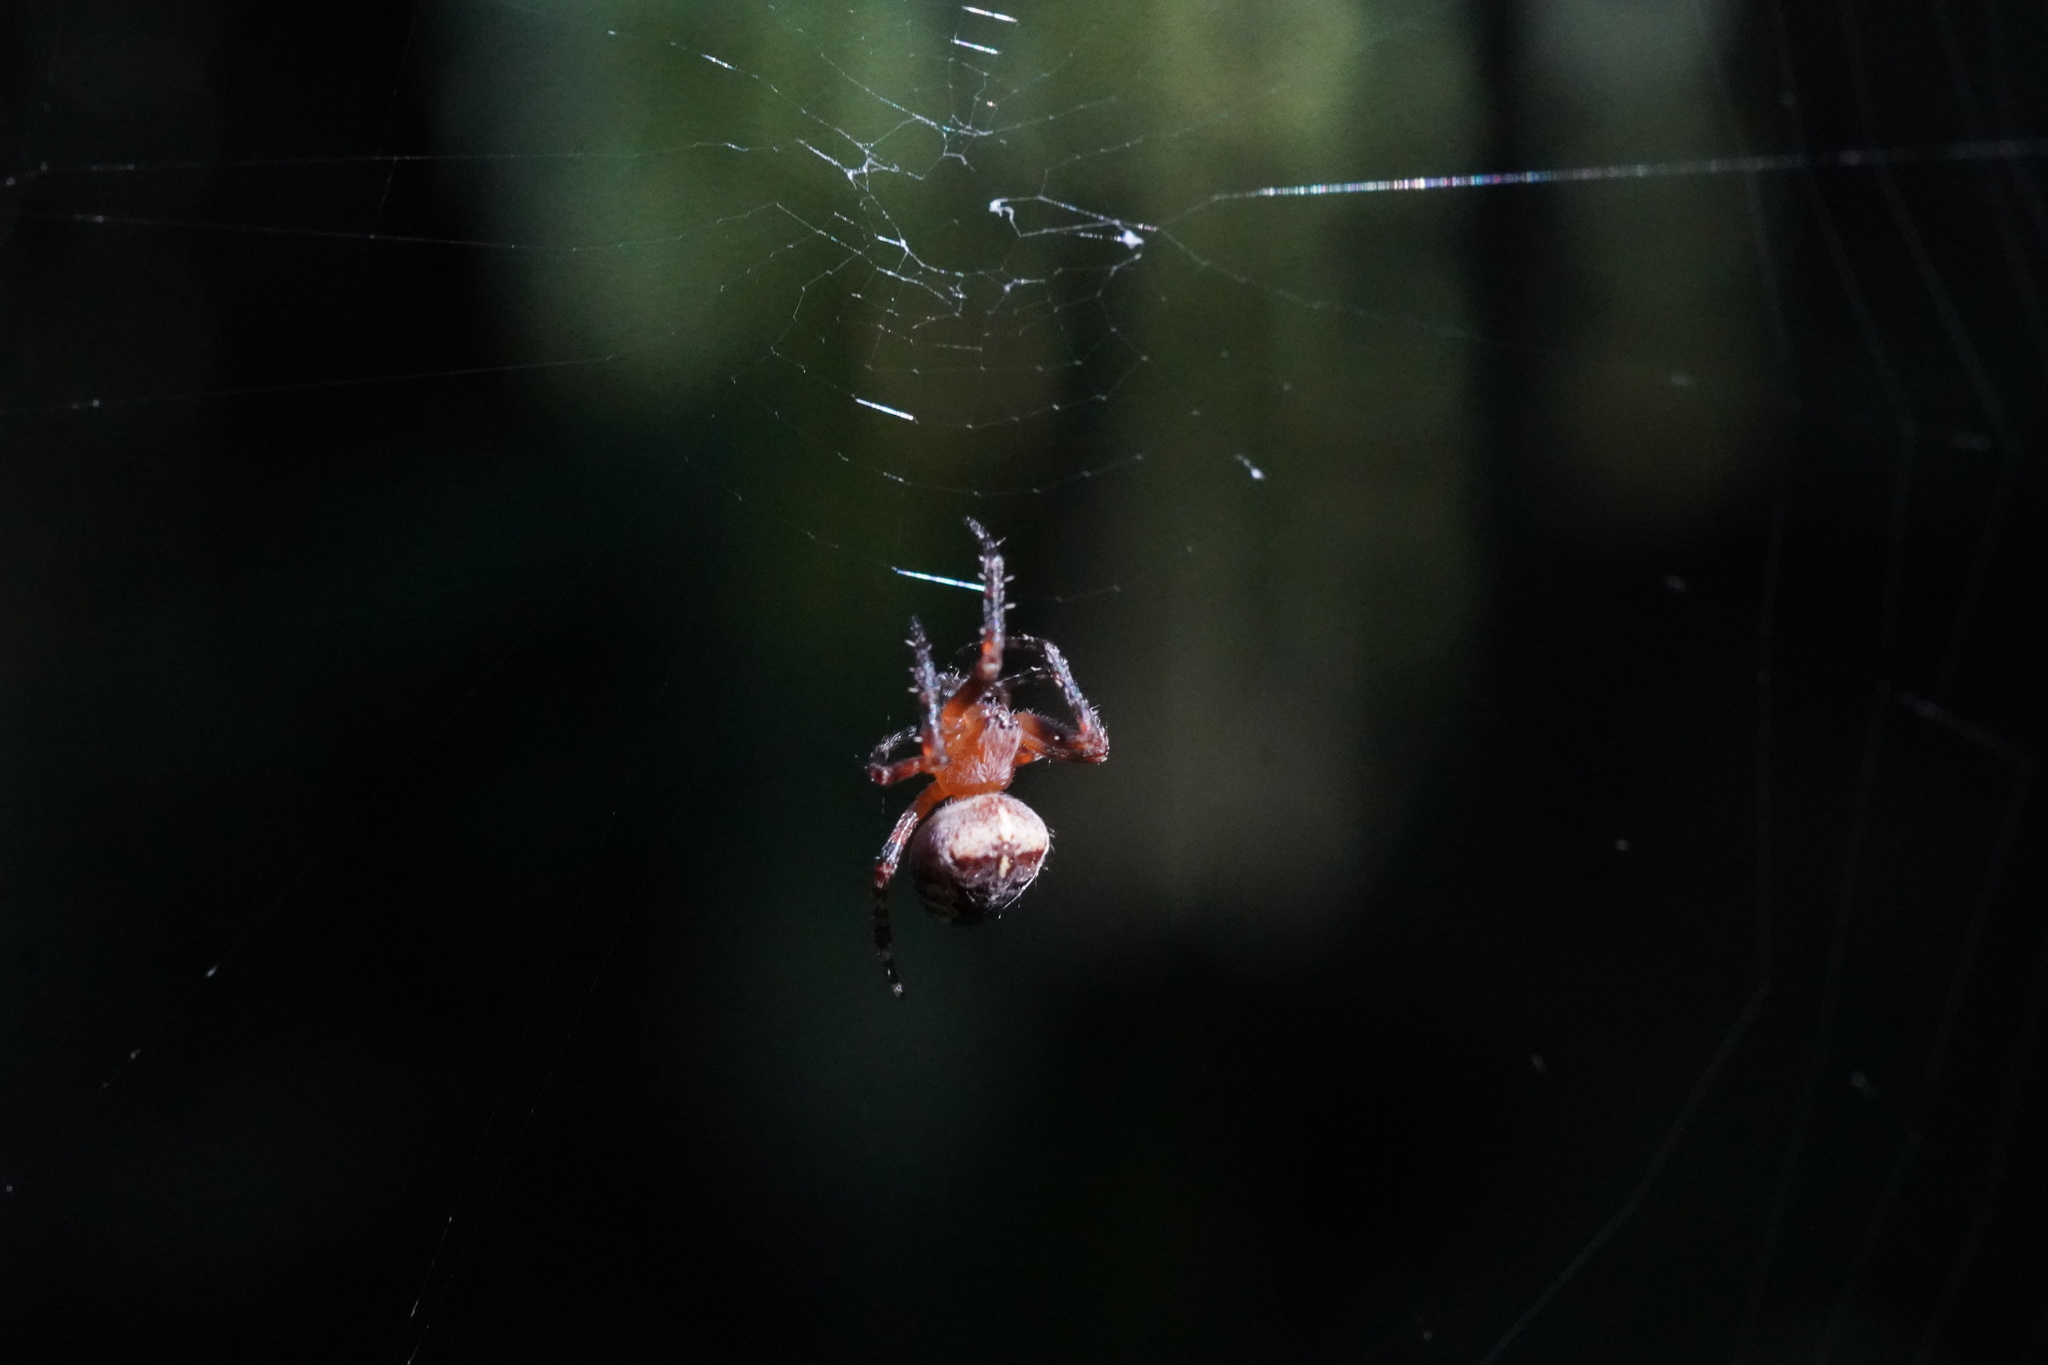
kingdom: Animalia
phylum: Arthropoda
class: Arachnida
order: Araneae
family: Araneidae
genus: Araneus
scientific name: Araneus diadematus
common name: Cross orbweaver
